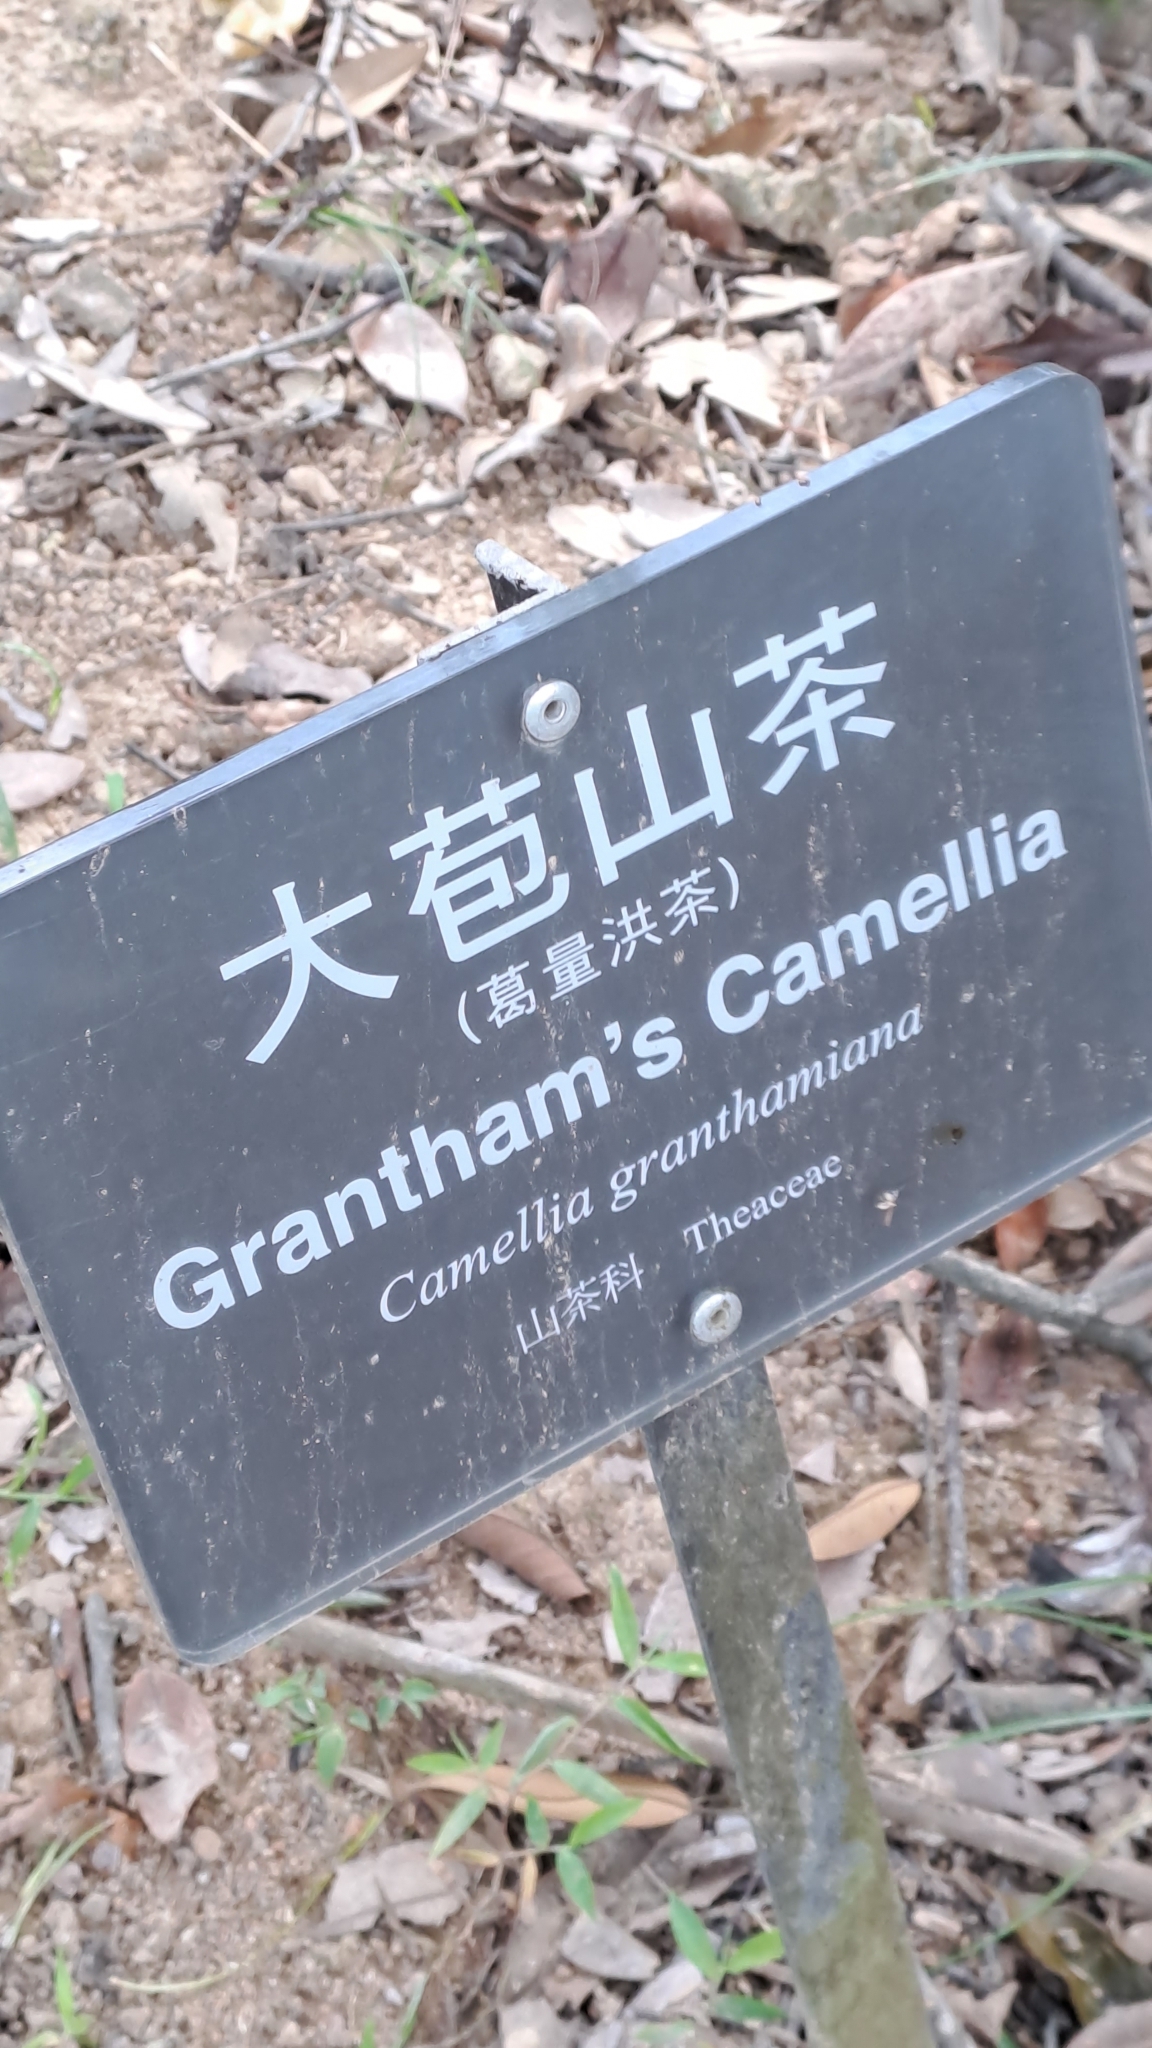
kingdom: Plantae
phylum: Tracheophyta
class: Magnoliopsida
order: Ericales
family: Theaceae
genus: Camellia
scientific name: Camellia granthamiana
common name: Grantham's camellia
